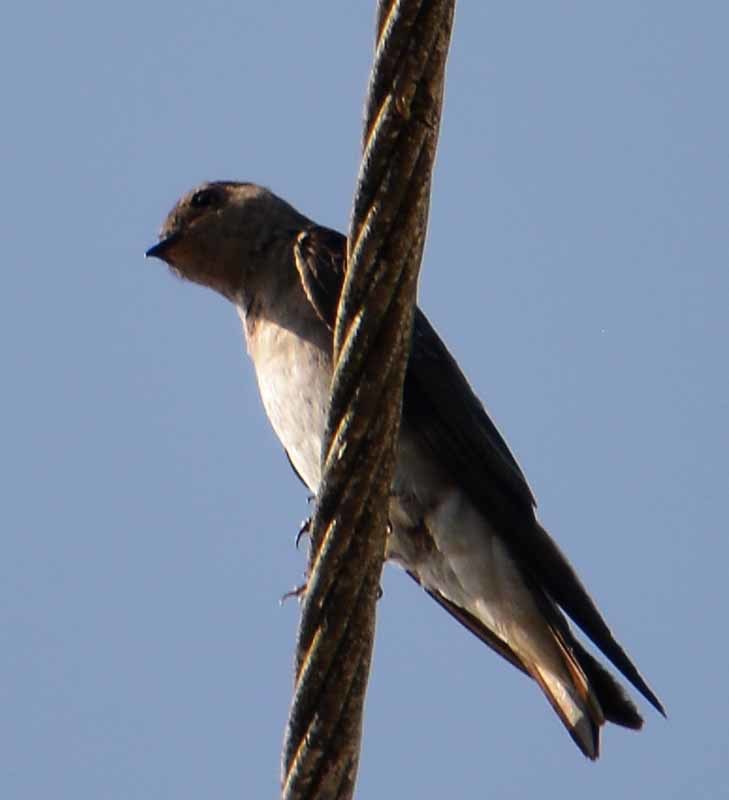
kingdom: Animalia
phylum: Chordata
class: Aves
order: Passeriformes
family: Hirundinidae
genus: Progne
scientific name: Progne chalybea
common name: Grey-breasted martin
